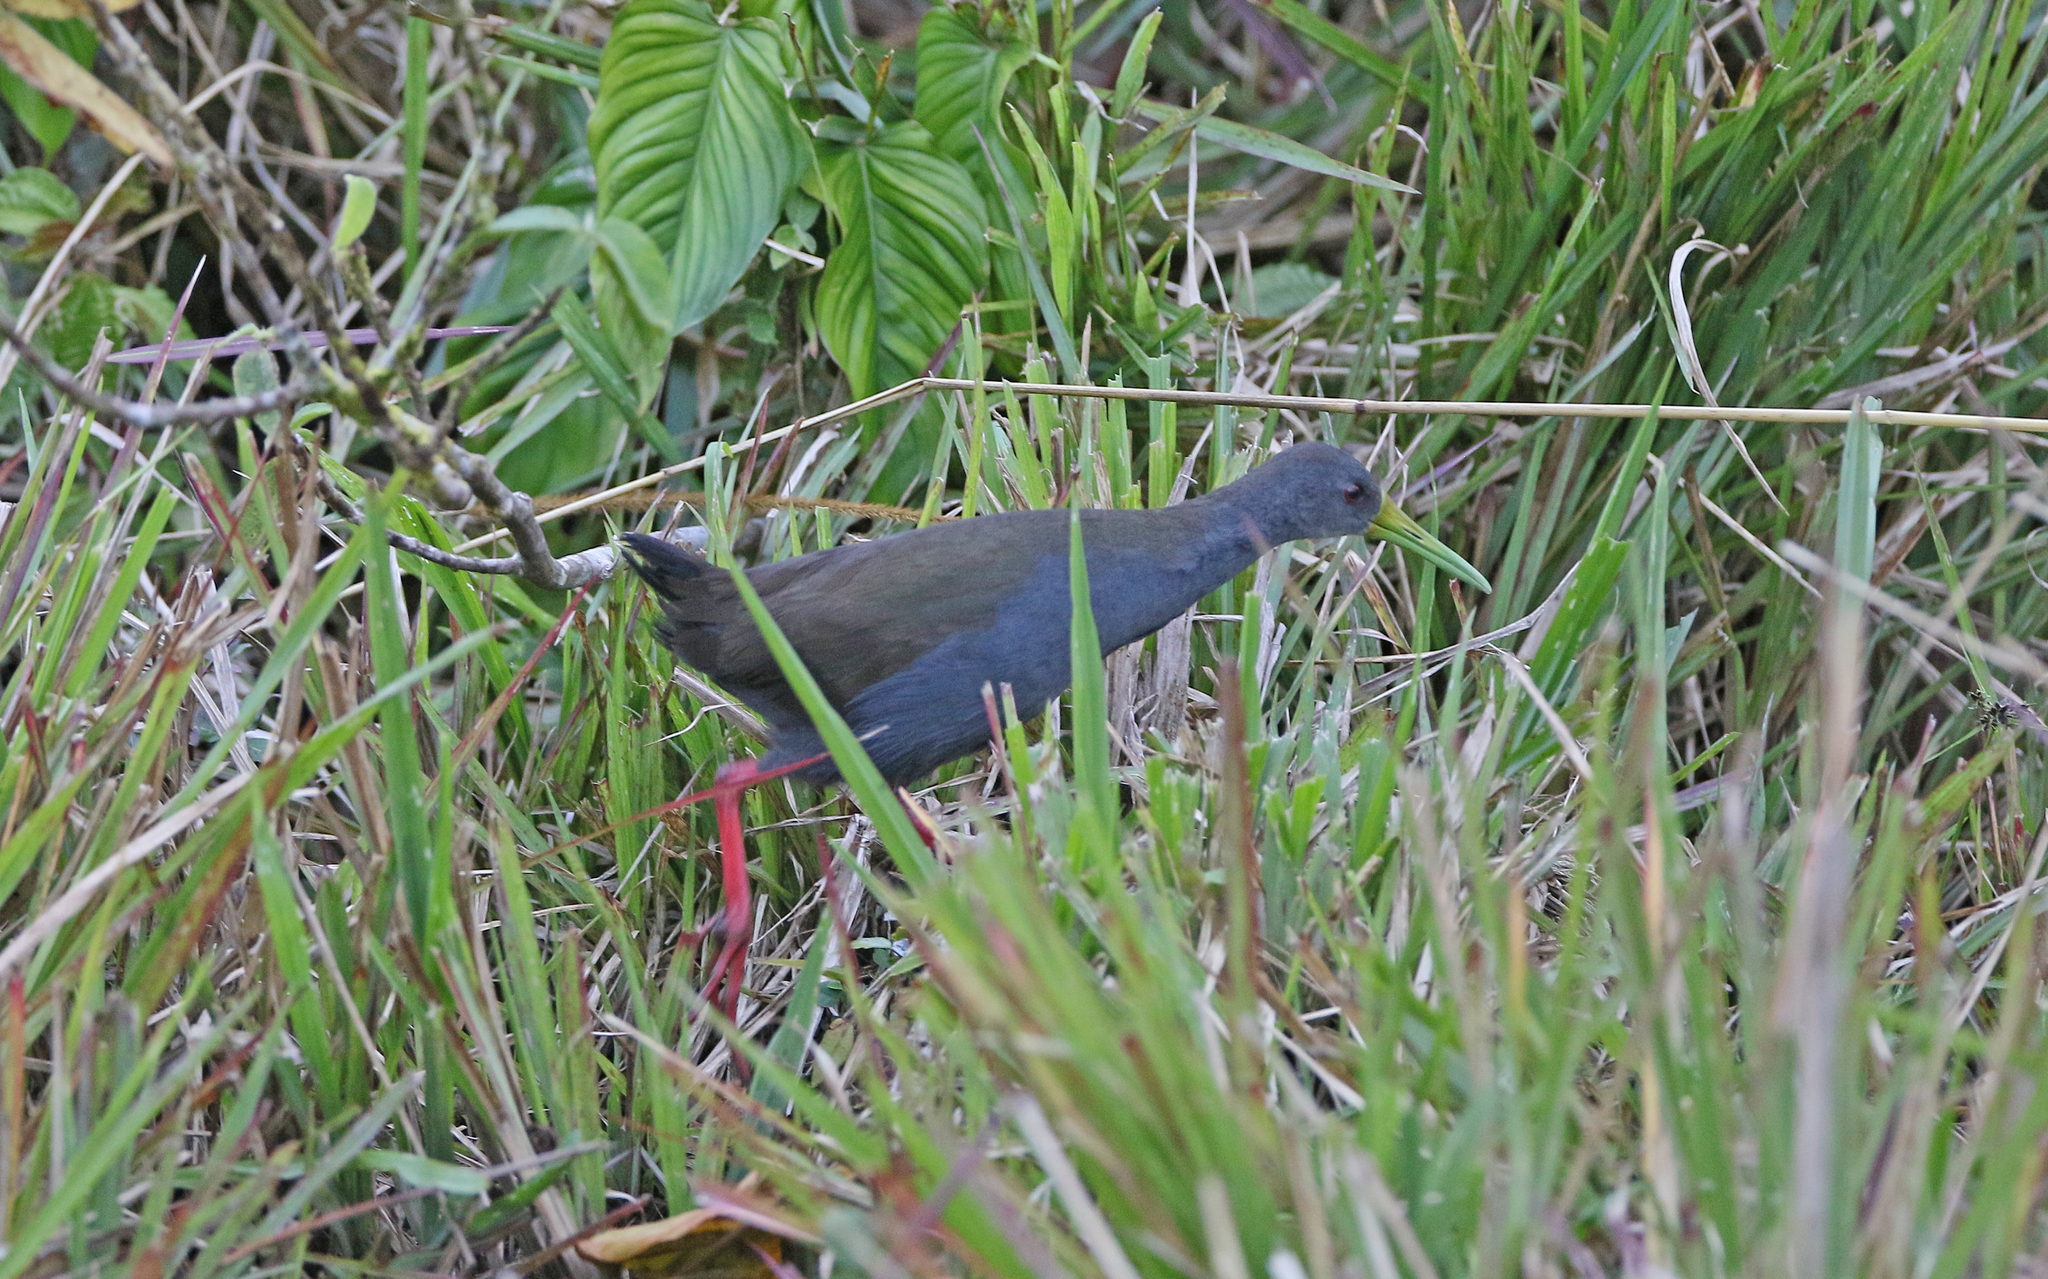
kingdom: Animalia
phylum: Chordata
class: Aves
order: Gruiformes
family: Rallidae
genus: Pardirallus
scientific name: Pardirallus nigricans
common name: Blackish rail
